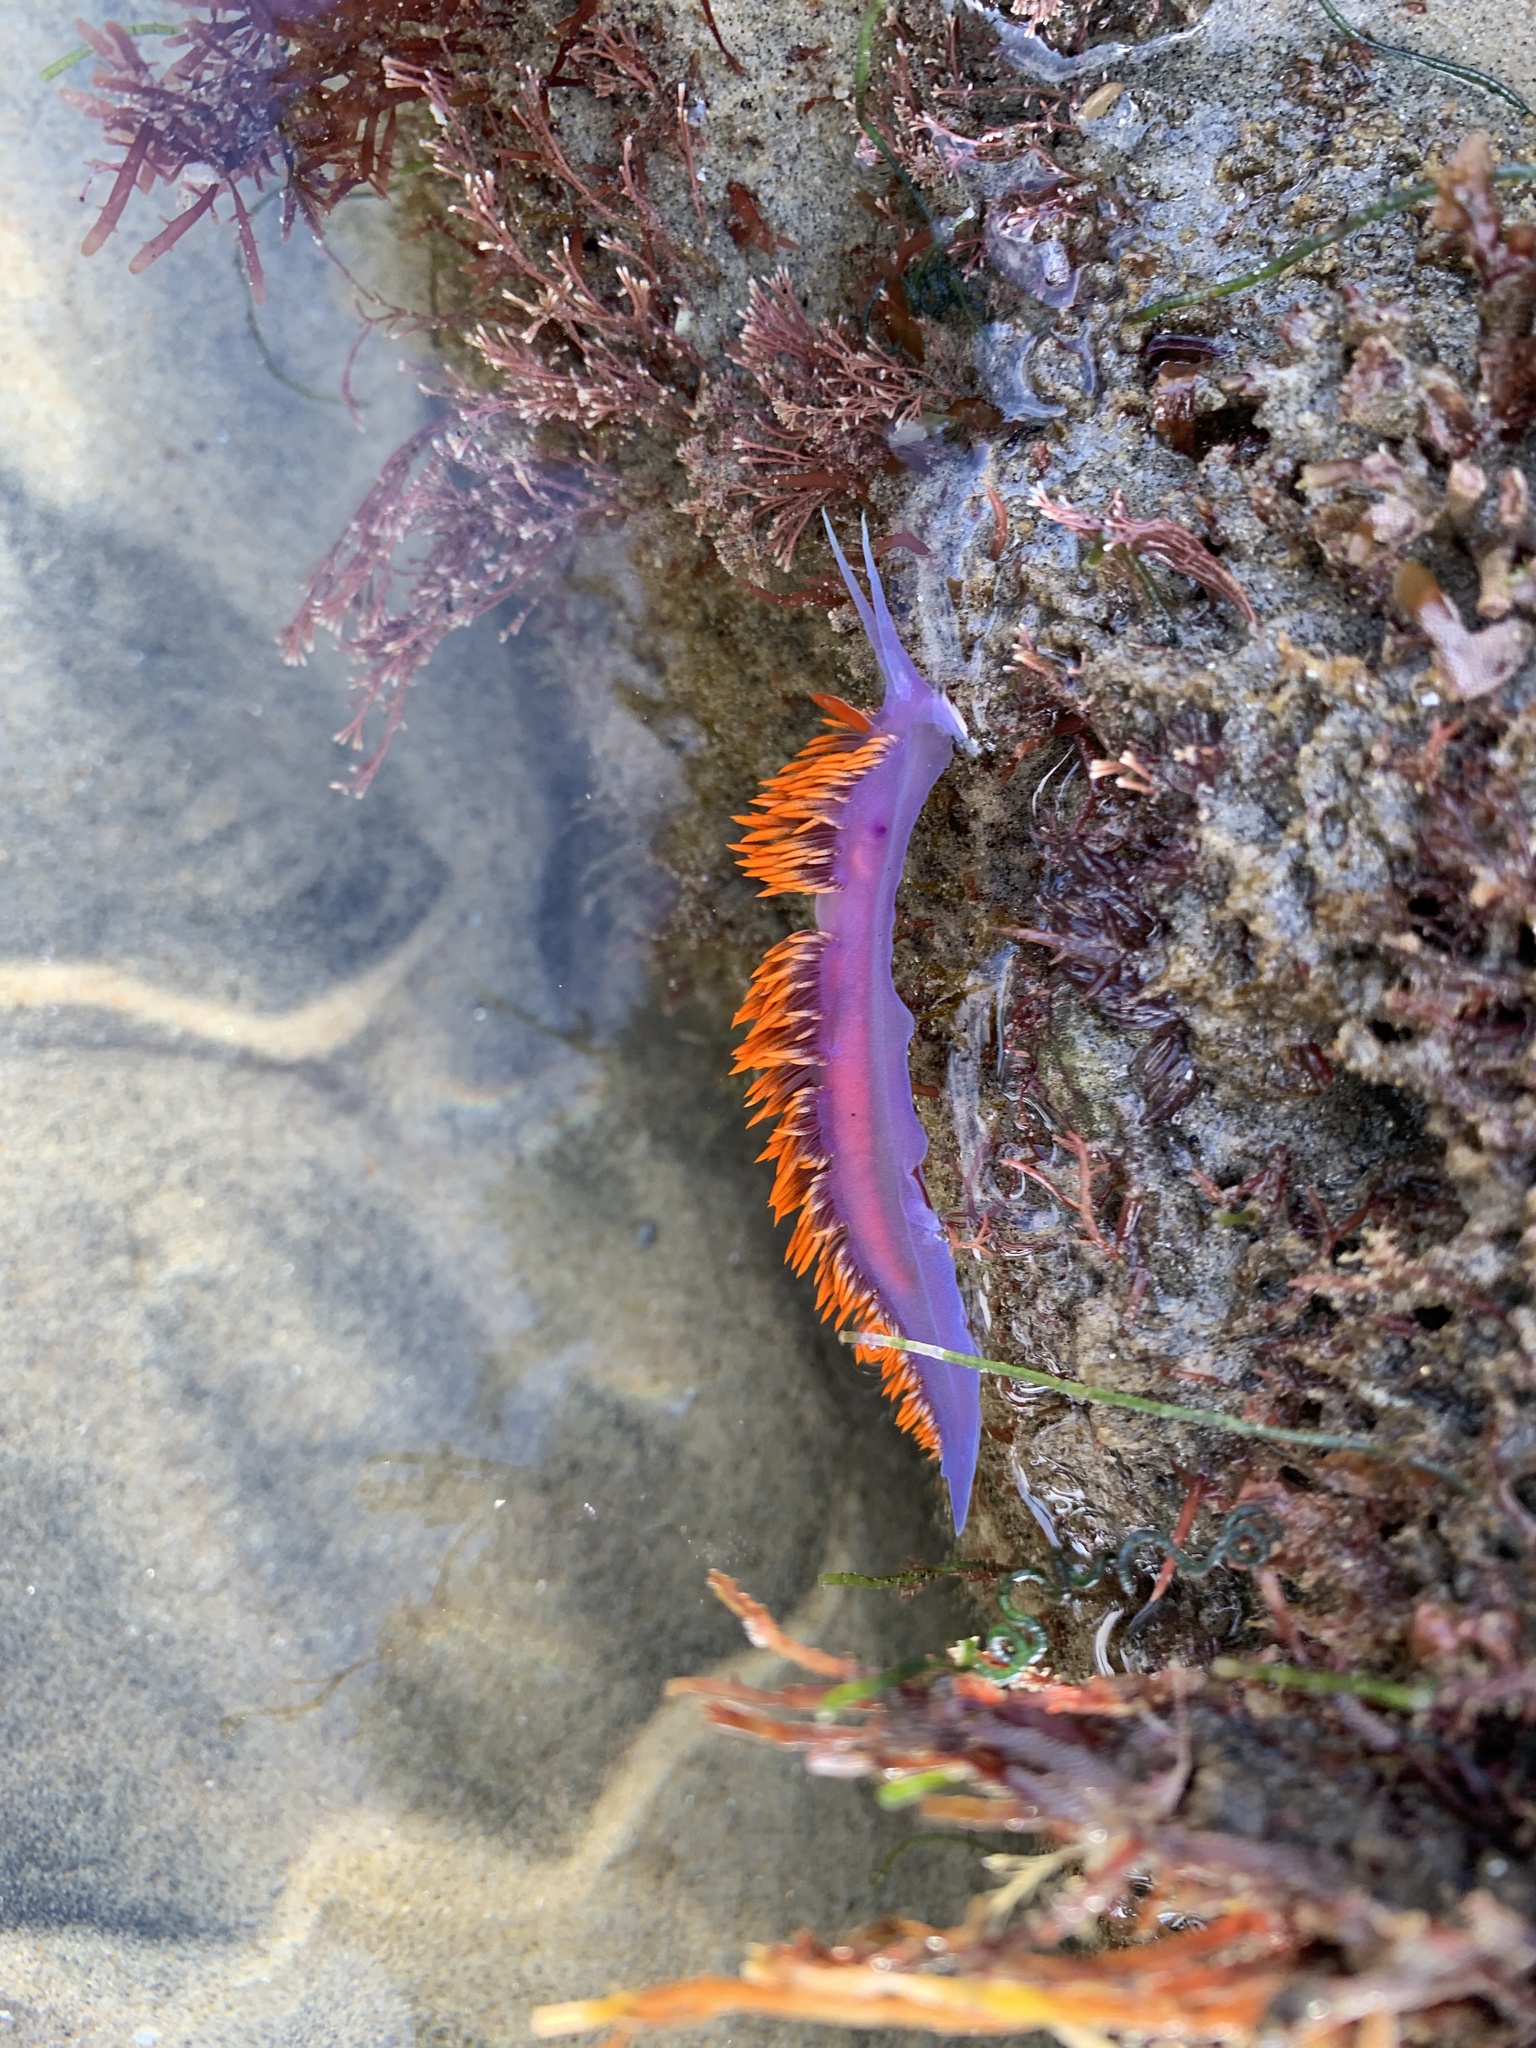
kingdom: Animalia
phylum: Mollusca
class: Gastropoda
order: Nudibranchia
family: Flabellinopsidae
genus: Flabellinopsis
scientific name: Flabellinopsis iodinea
